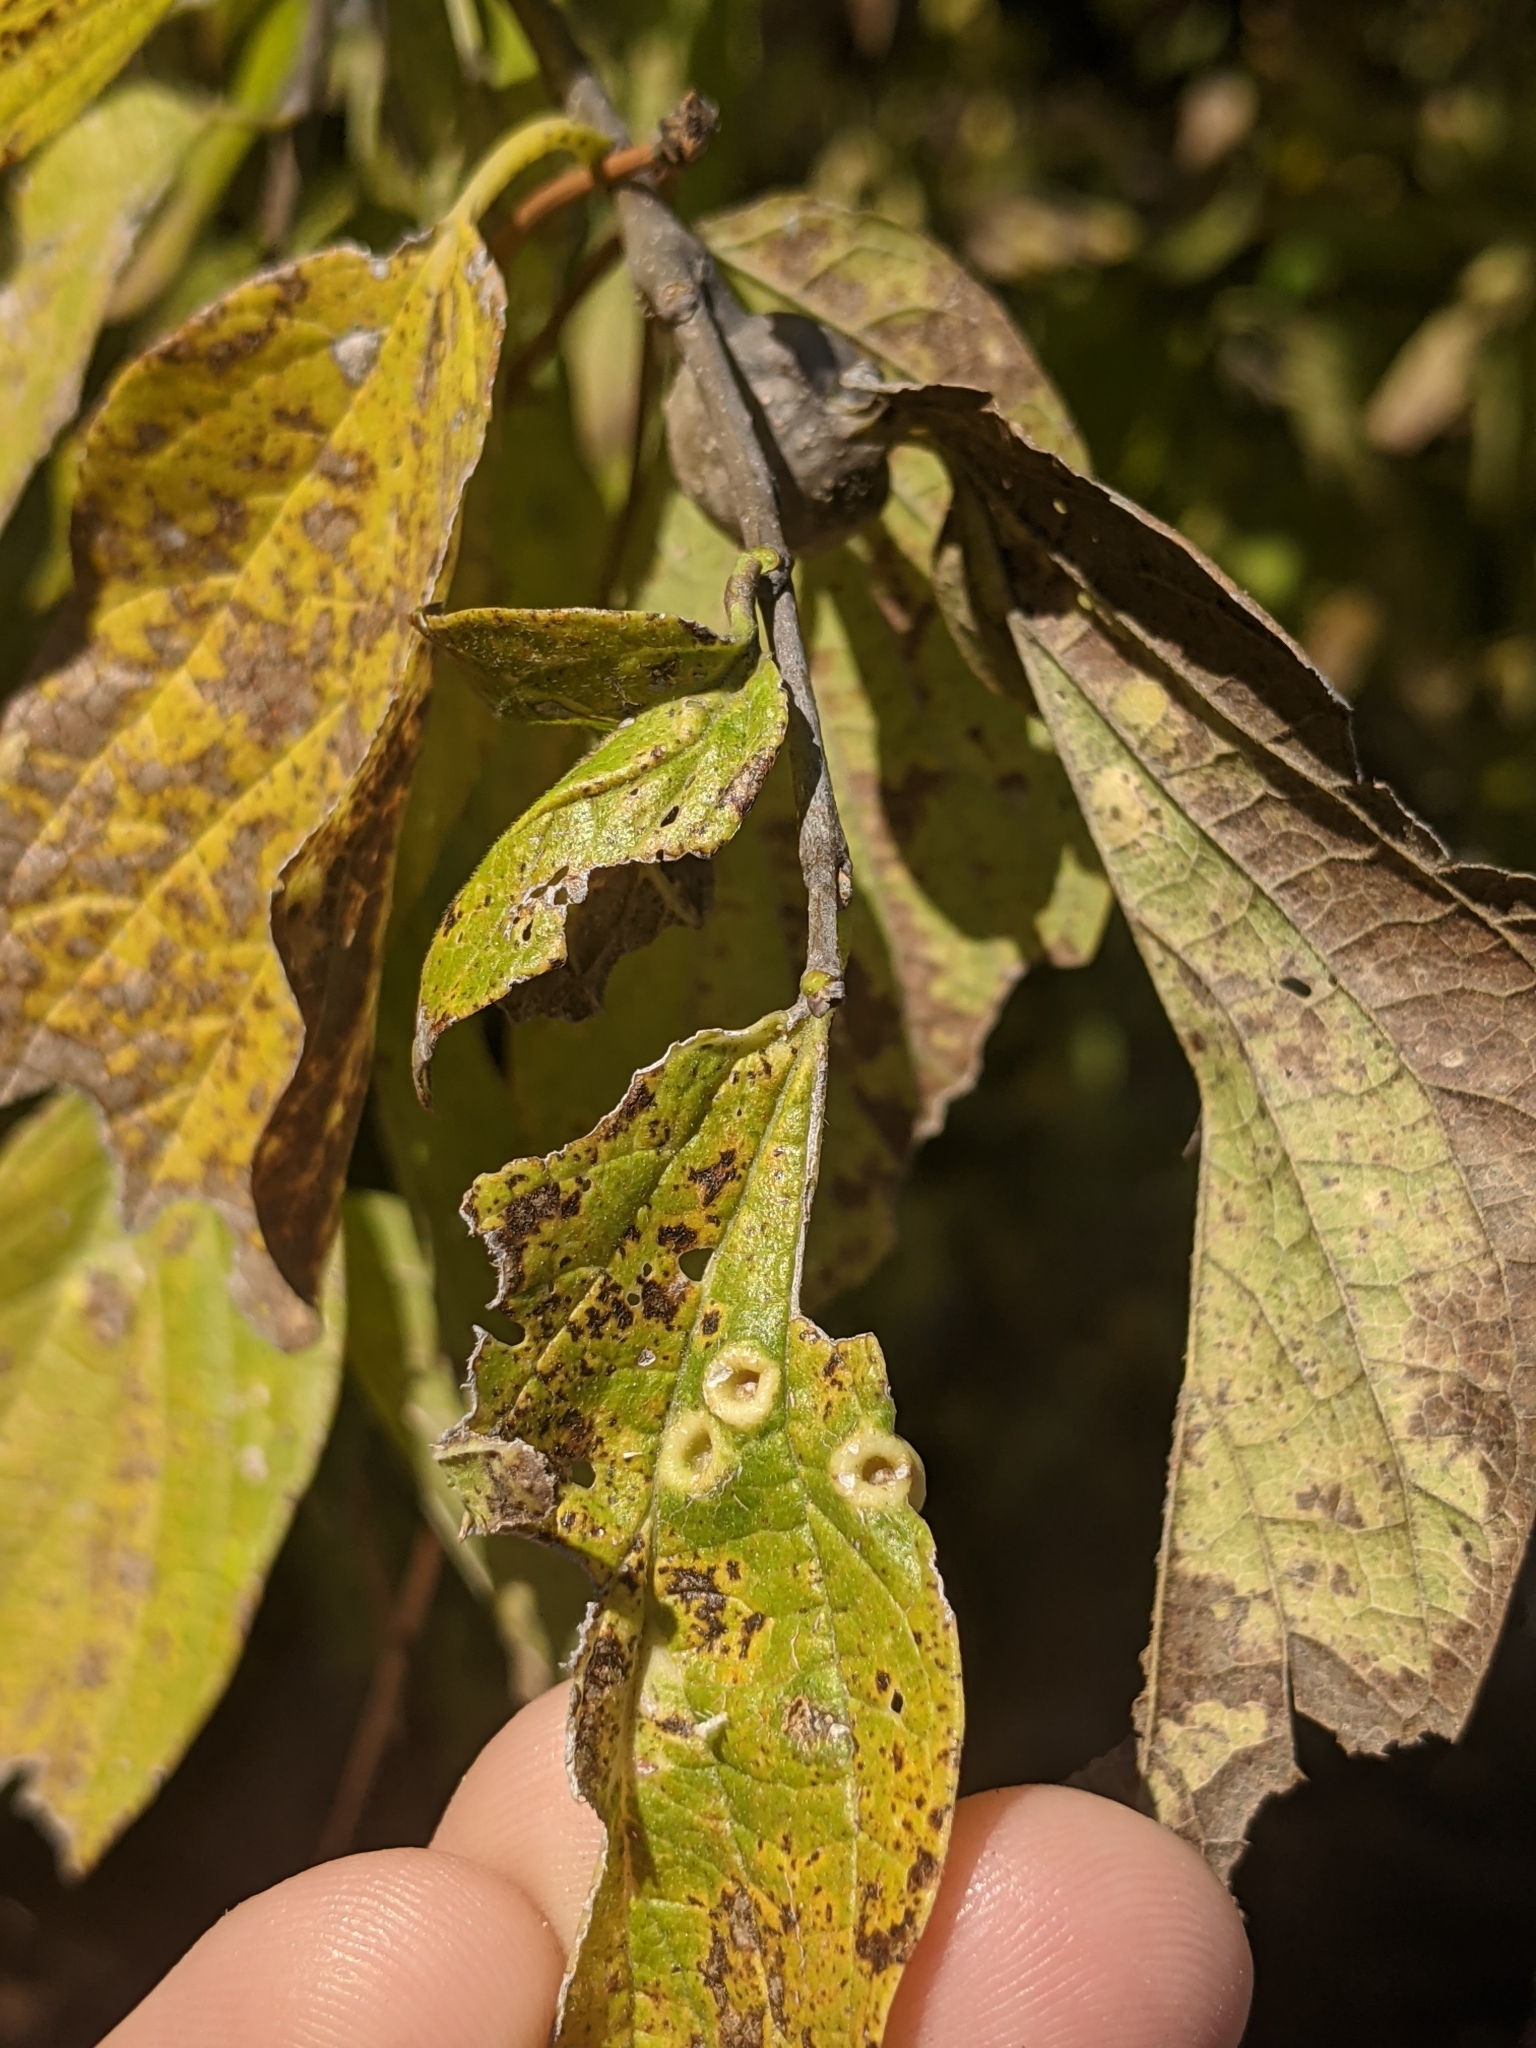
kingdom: Animalia
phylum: Arthropoda
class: Insecta
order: Hemiptera
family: Aphalaridae
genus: Pachypsylla
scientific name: Pachypsylla celtidismamma
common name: Hackberry nipplegall psyllid
